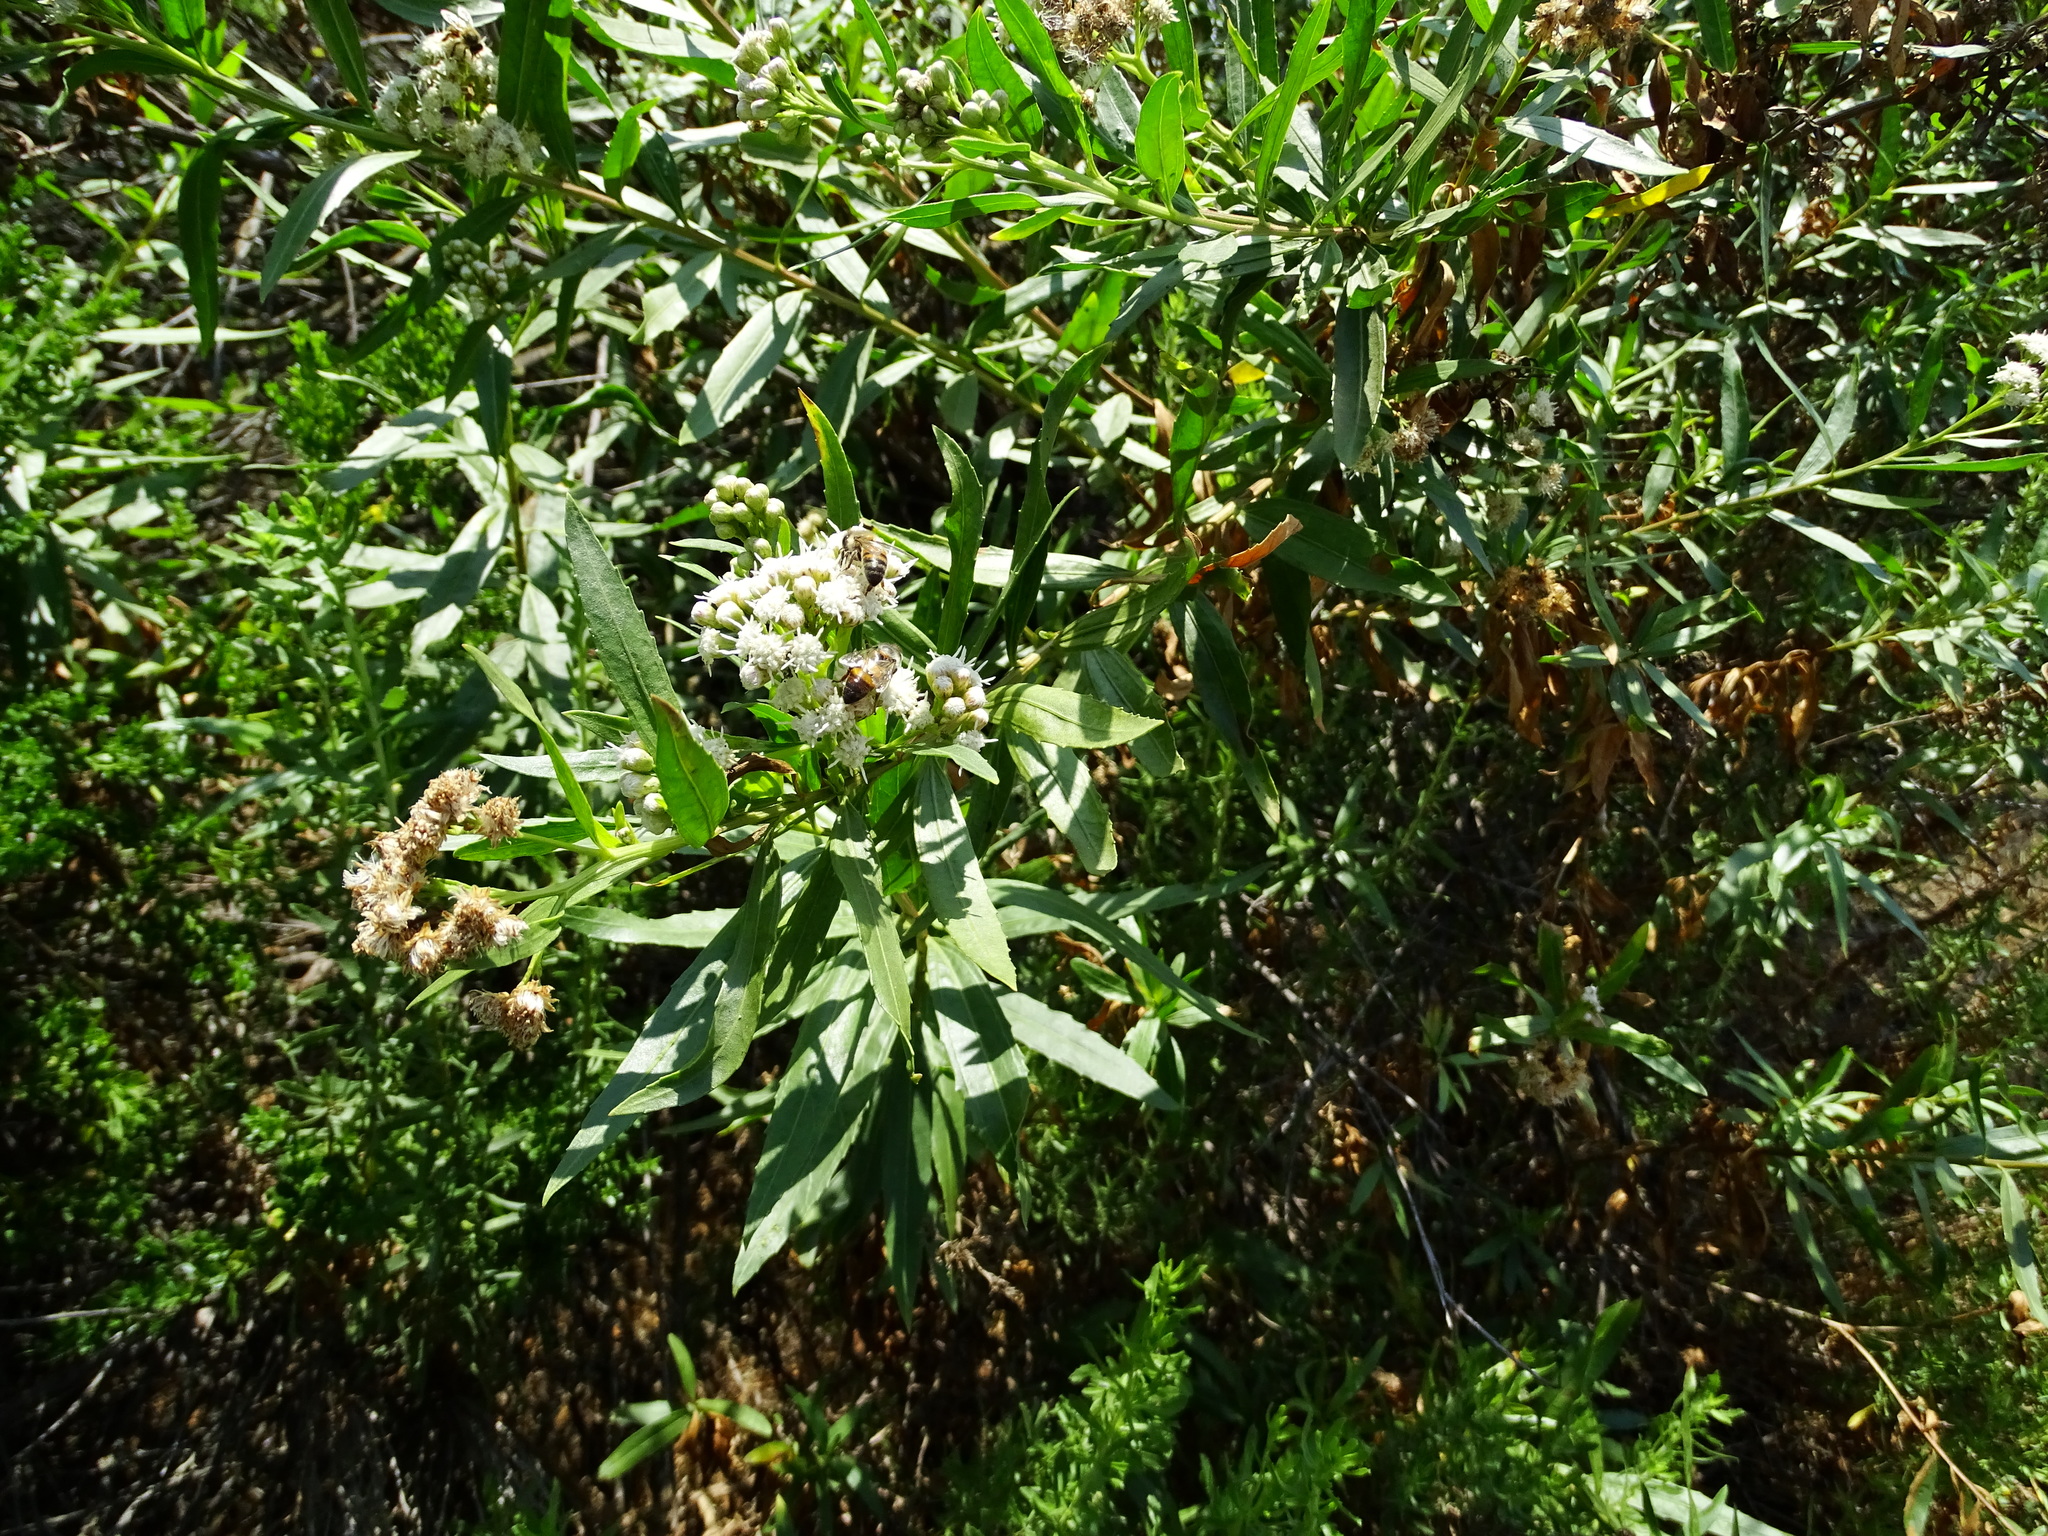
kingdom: Plantae
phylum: Tracheophyta
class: Magnoliopsida
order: Asterales
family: Asteraceae
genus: Baccharis
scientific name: Baccharis salicifolia
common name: Sticky baccharis
